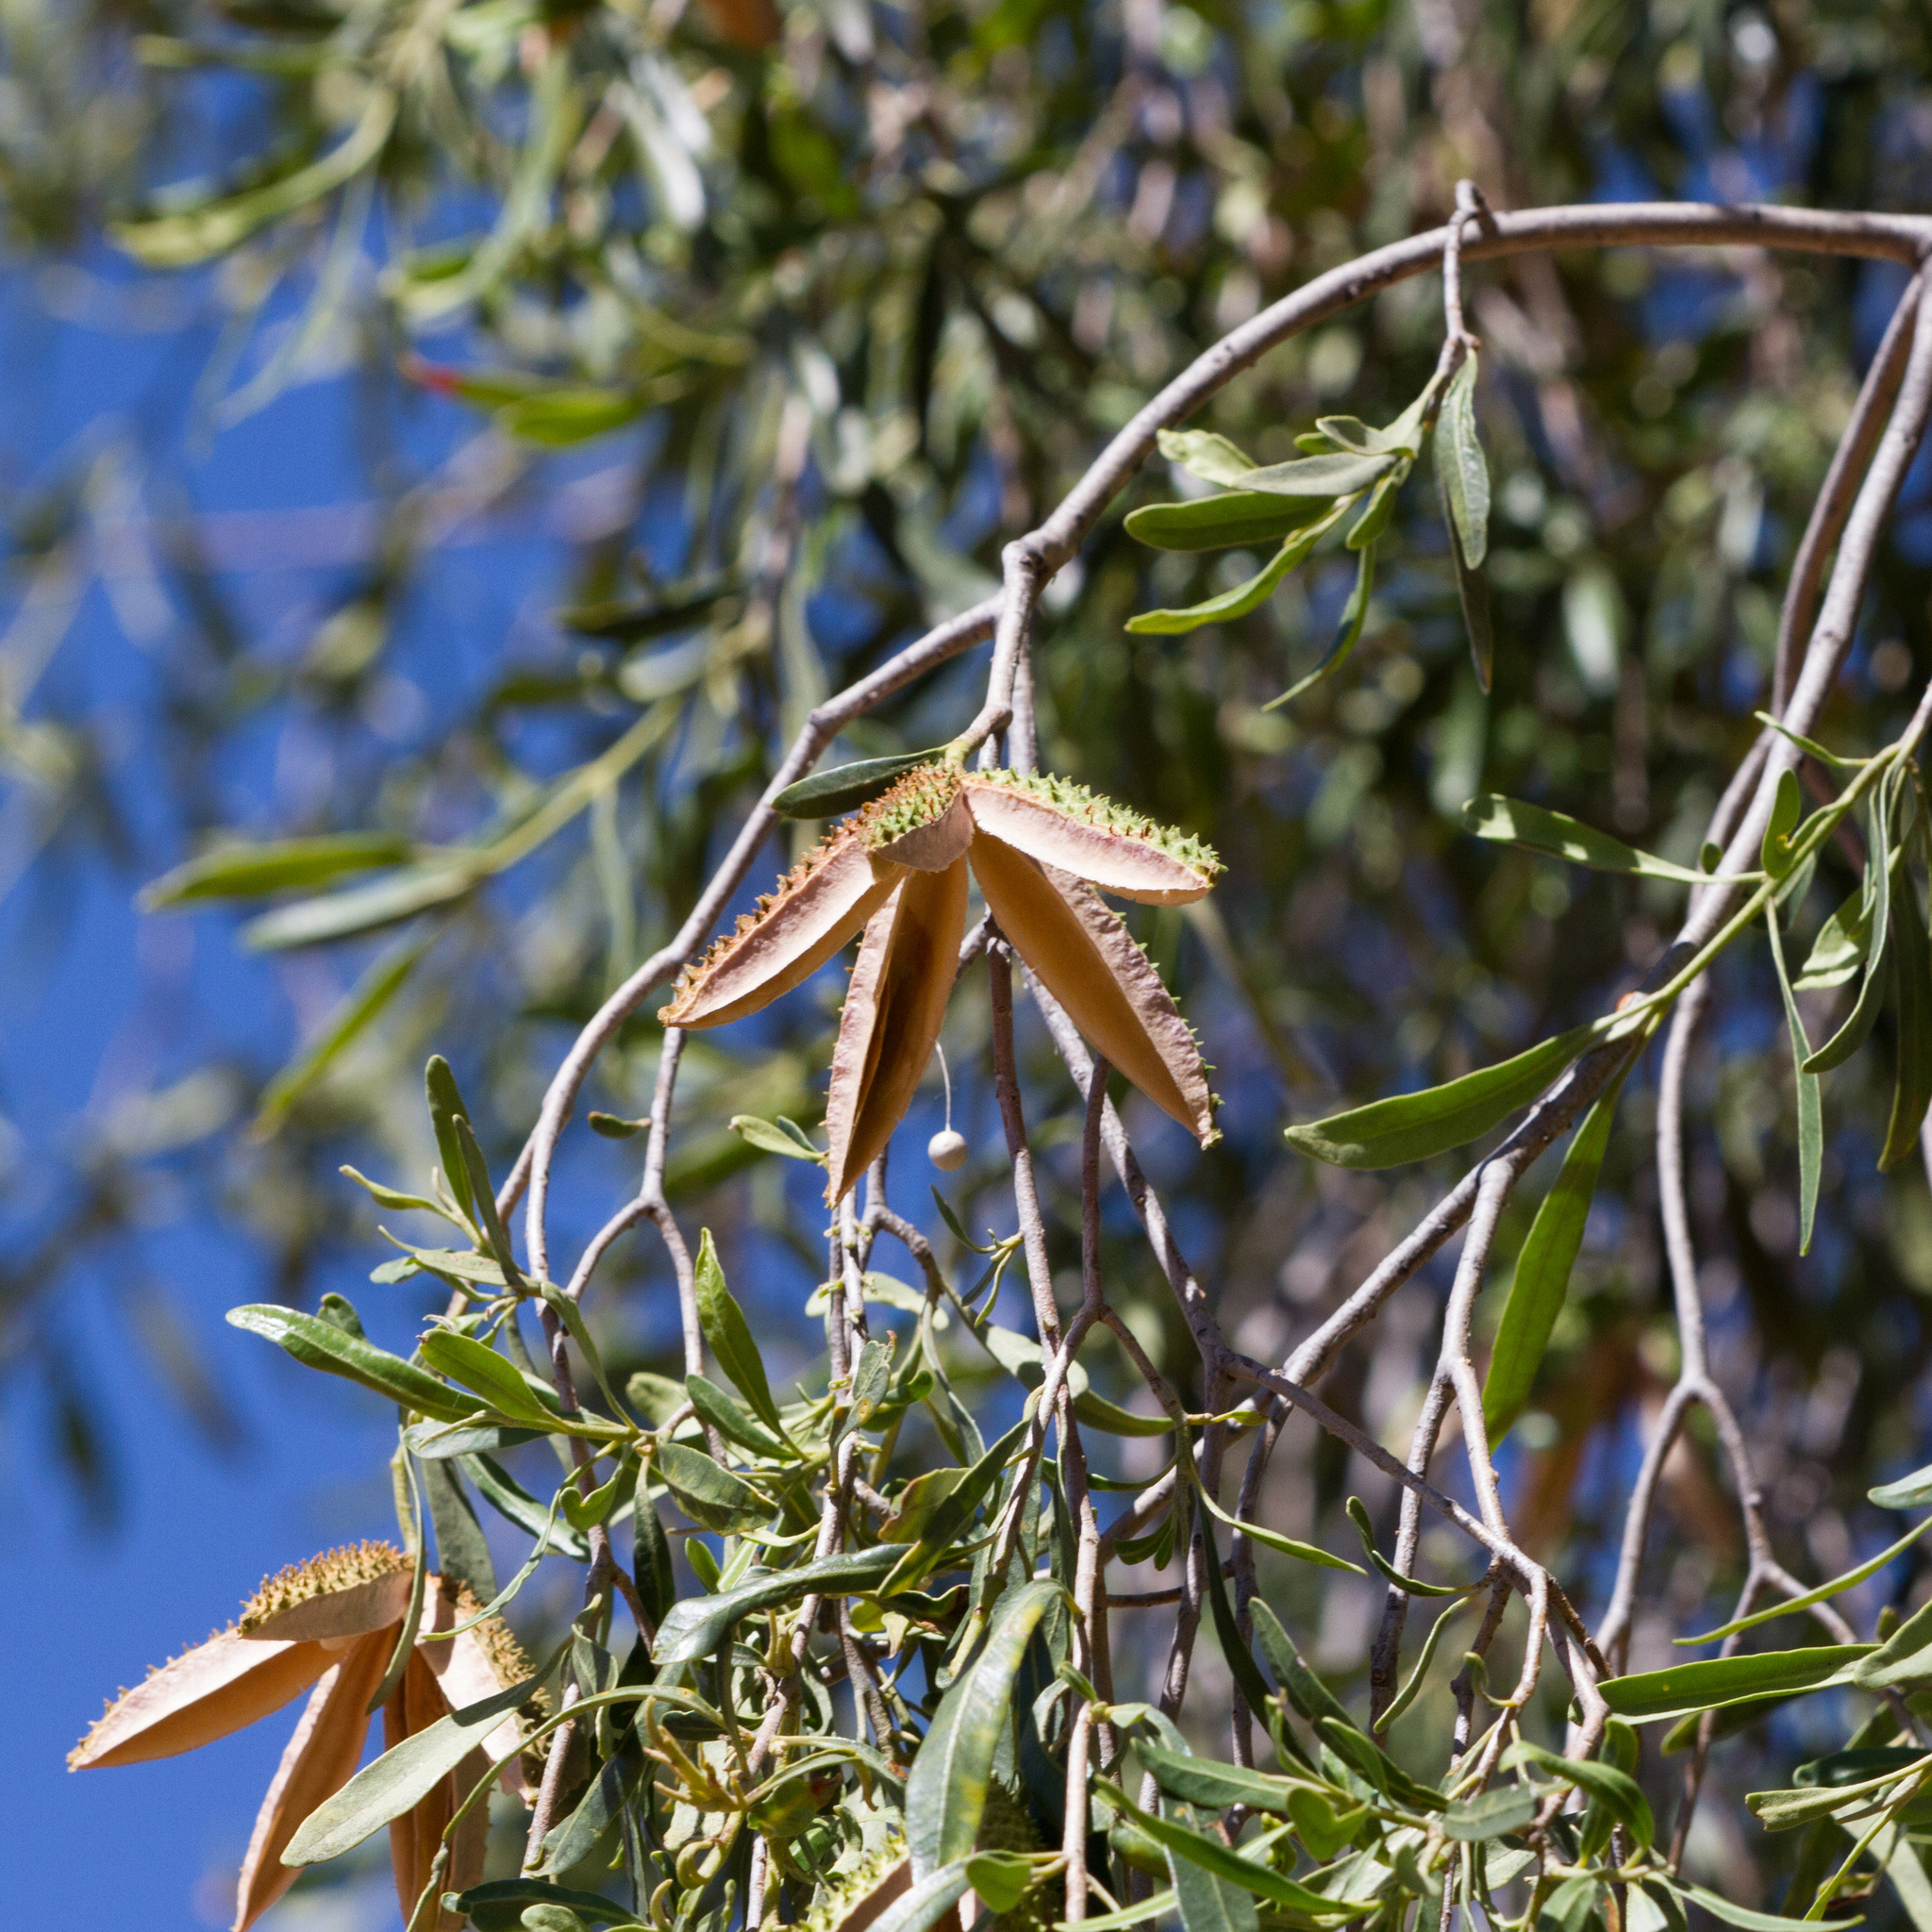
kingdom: Plantae
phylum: Tracheophyta
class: Magnoliopsida
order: Sapindales
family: Rutaceae
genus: Flindersia
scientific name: Flindersia maculosa
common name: Leopardtree
